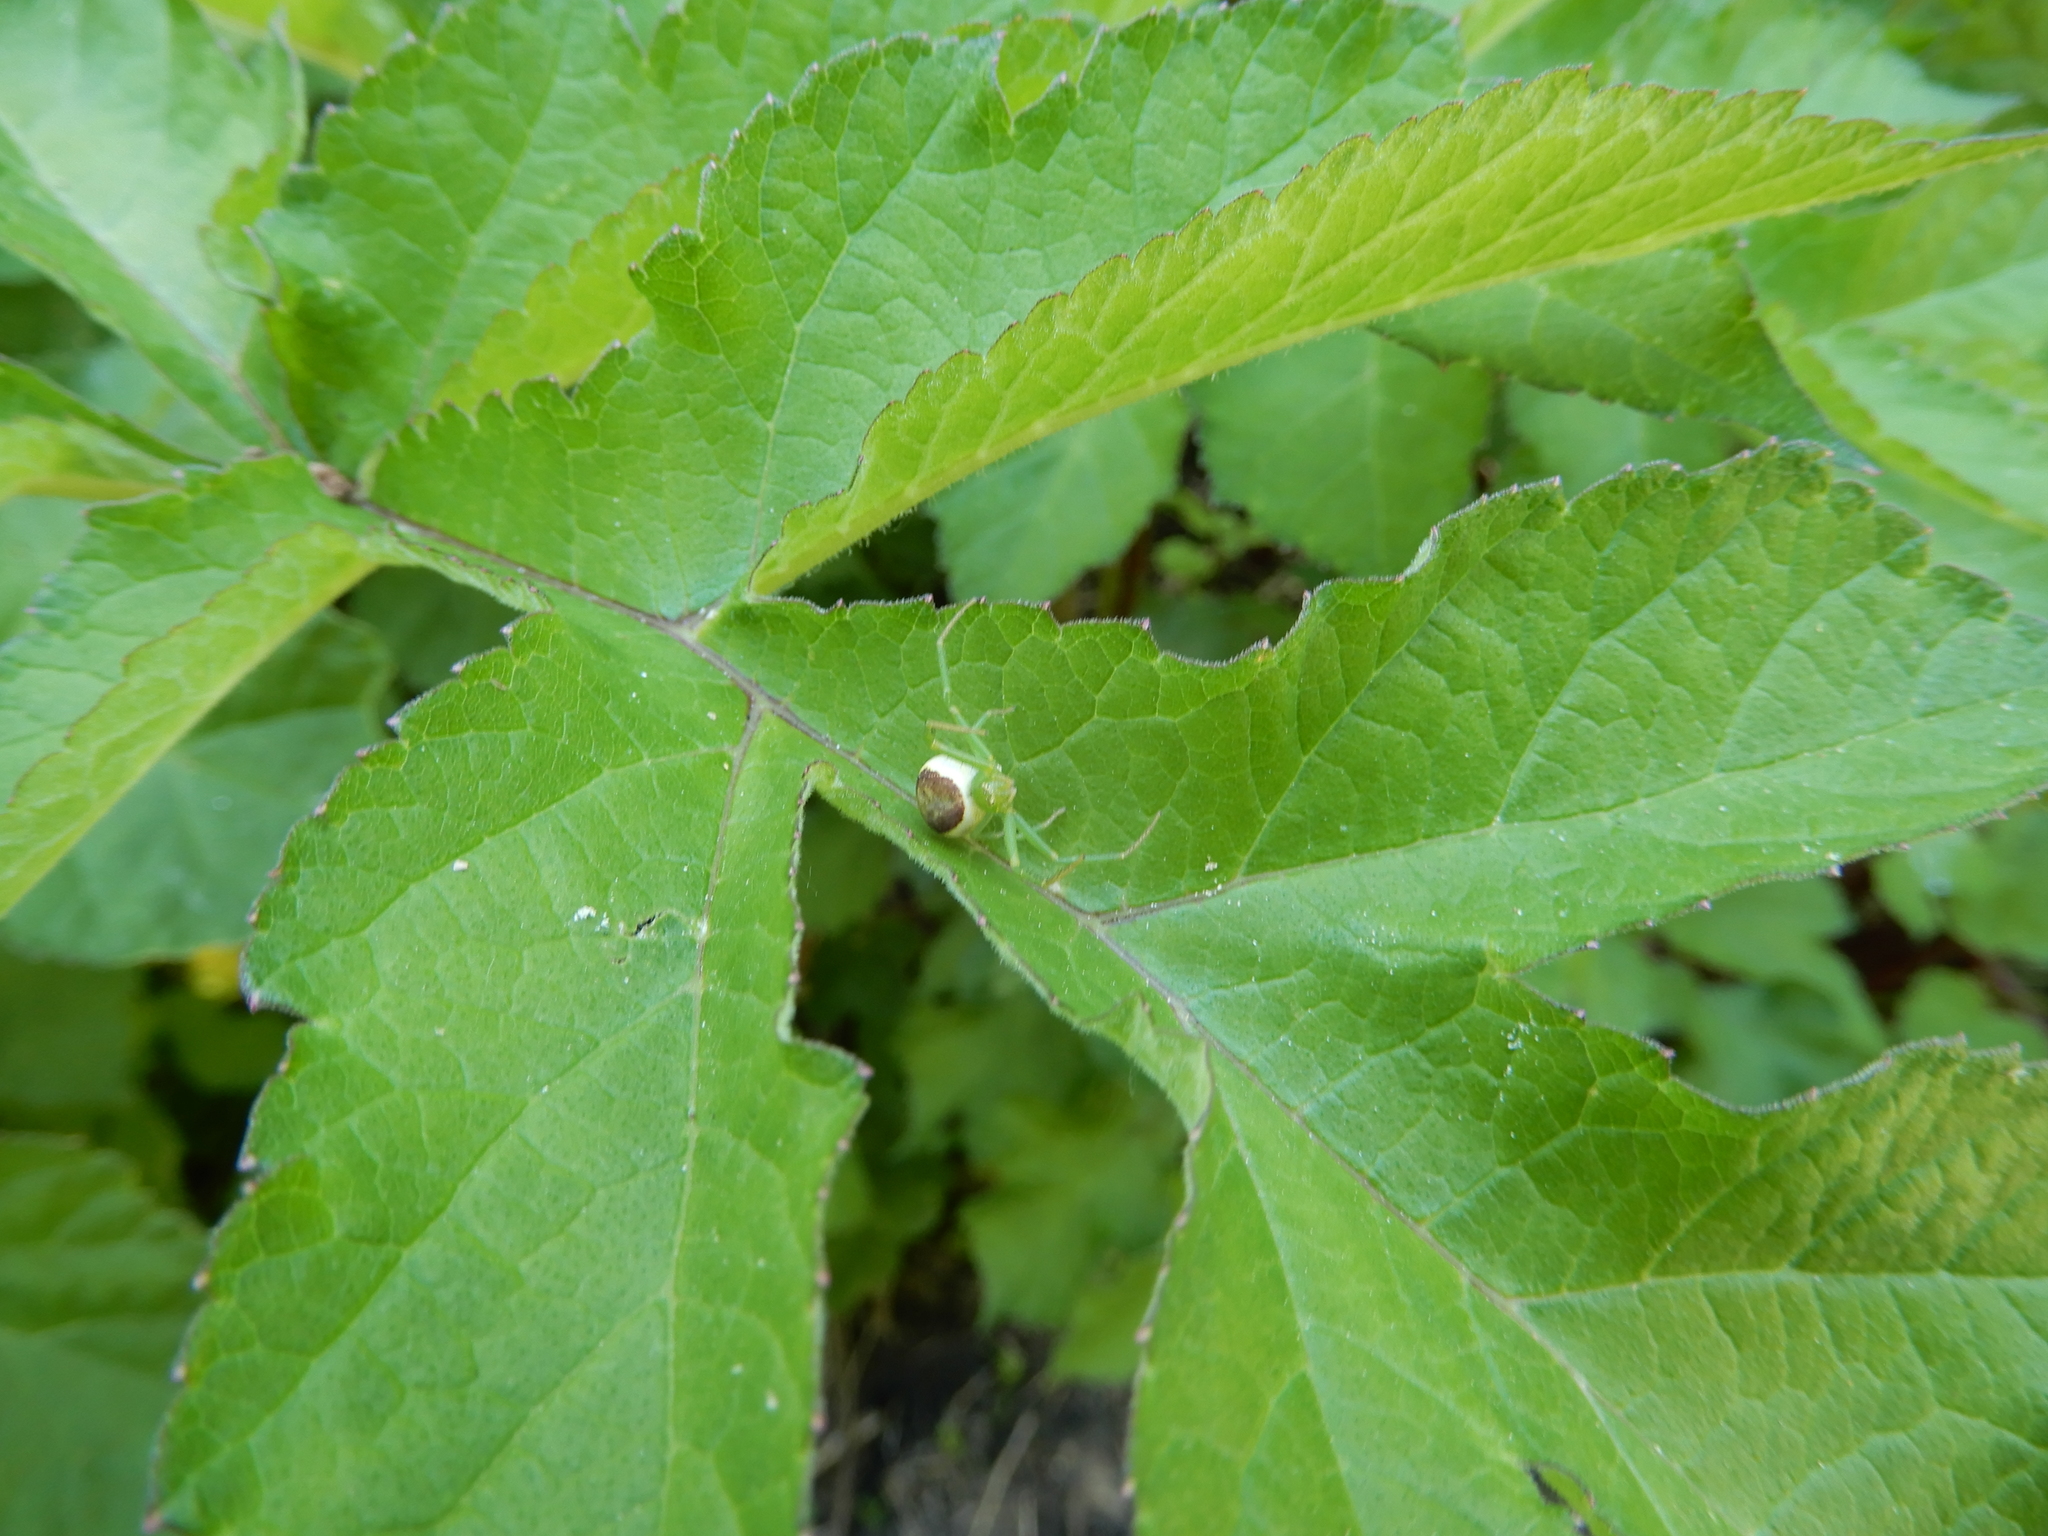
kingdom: Animalia
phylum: Arthropoda
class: Arachnida
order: Araneae
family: Thomisidae
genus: Diaea
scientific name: Diaea dorsata
